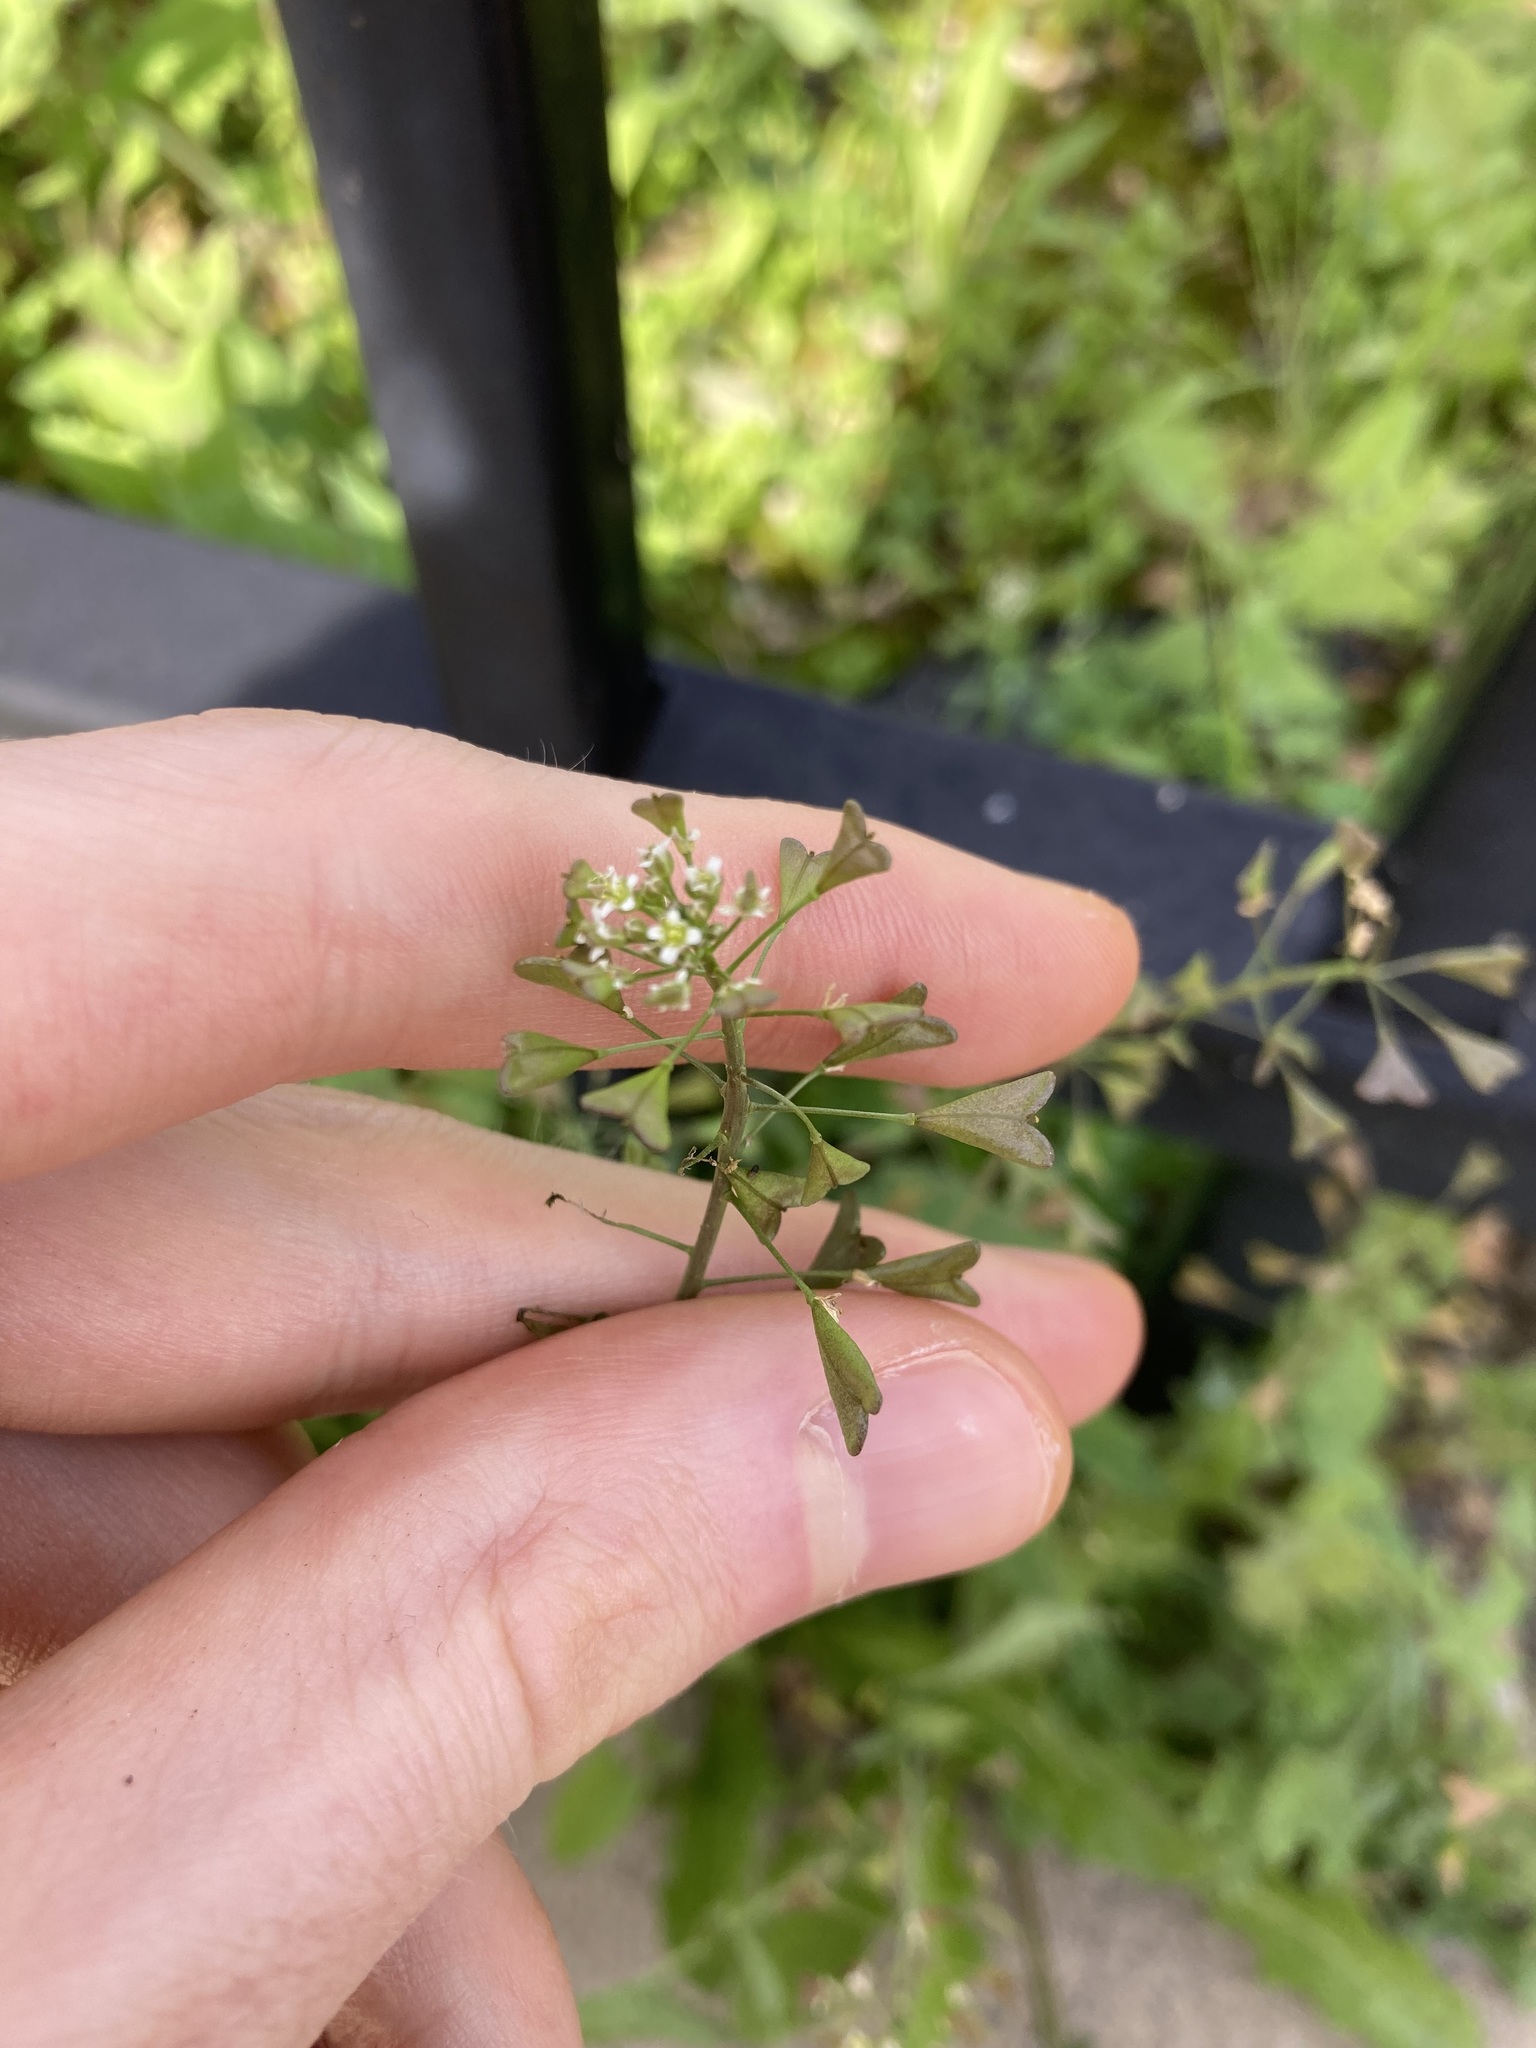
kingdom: Plantae
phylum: Tracheophyta
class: Magnoliopsida
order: Brassicales
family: Brassicaceae
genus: Capsella
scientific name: Capsella bursa-pastoris
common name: Shepherd's purse
